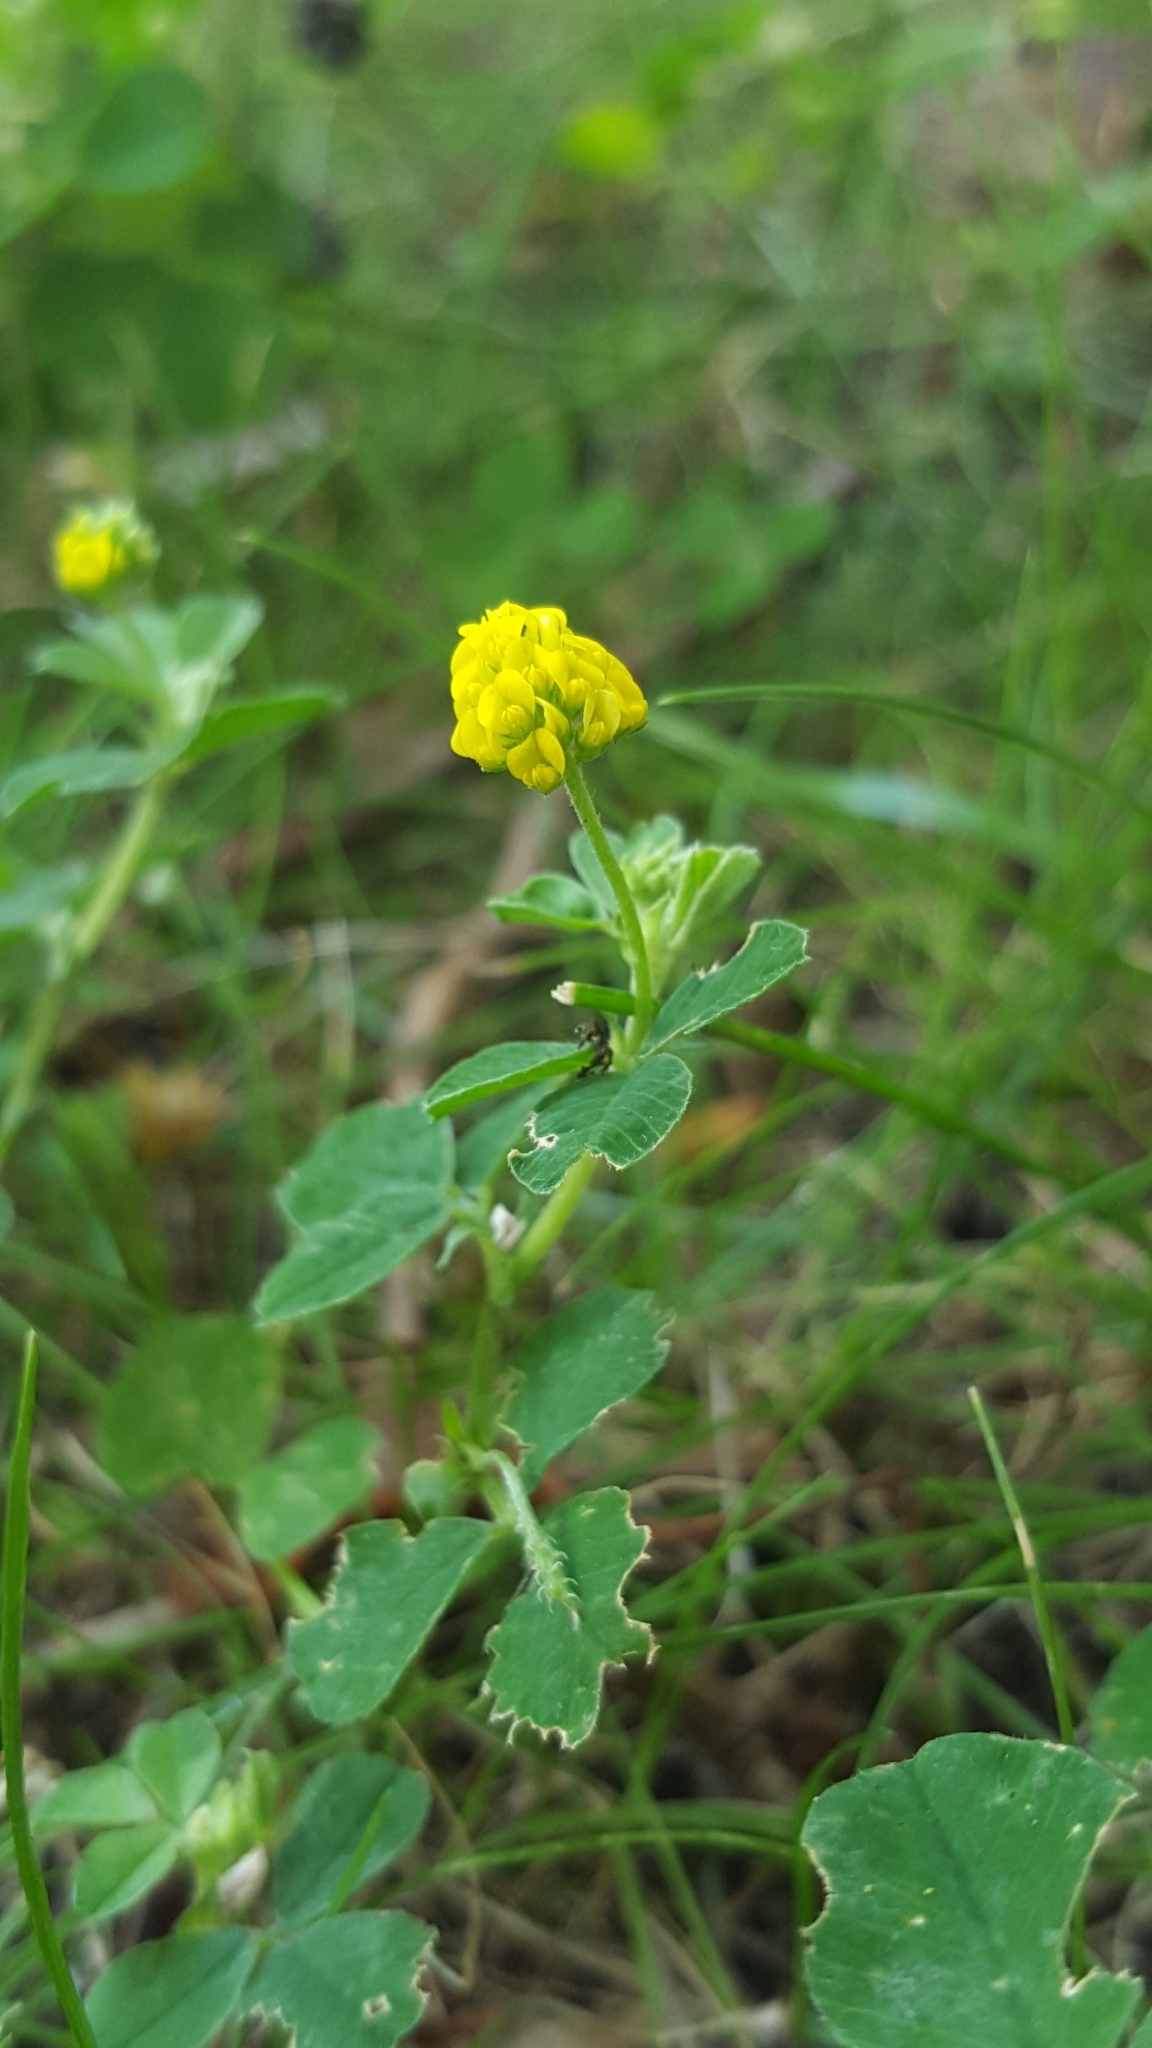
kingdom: Plantae
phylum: Tracheophyta
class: Magnoliopsida
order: Fabales
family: Fabaceae
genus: Medicago
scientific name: Medicago lupulina
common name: Black medick
